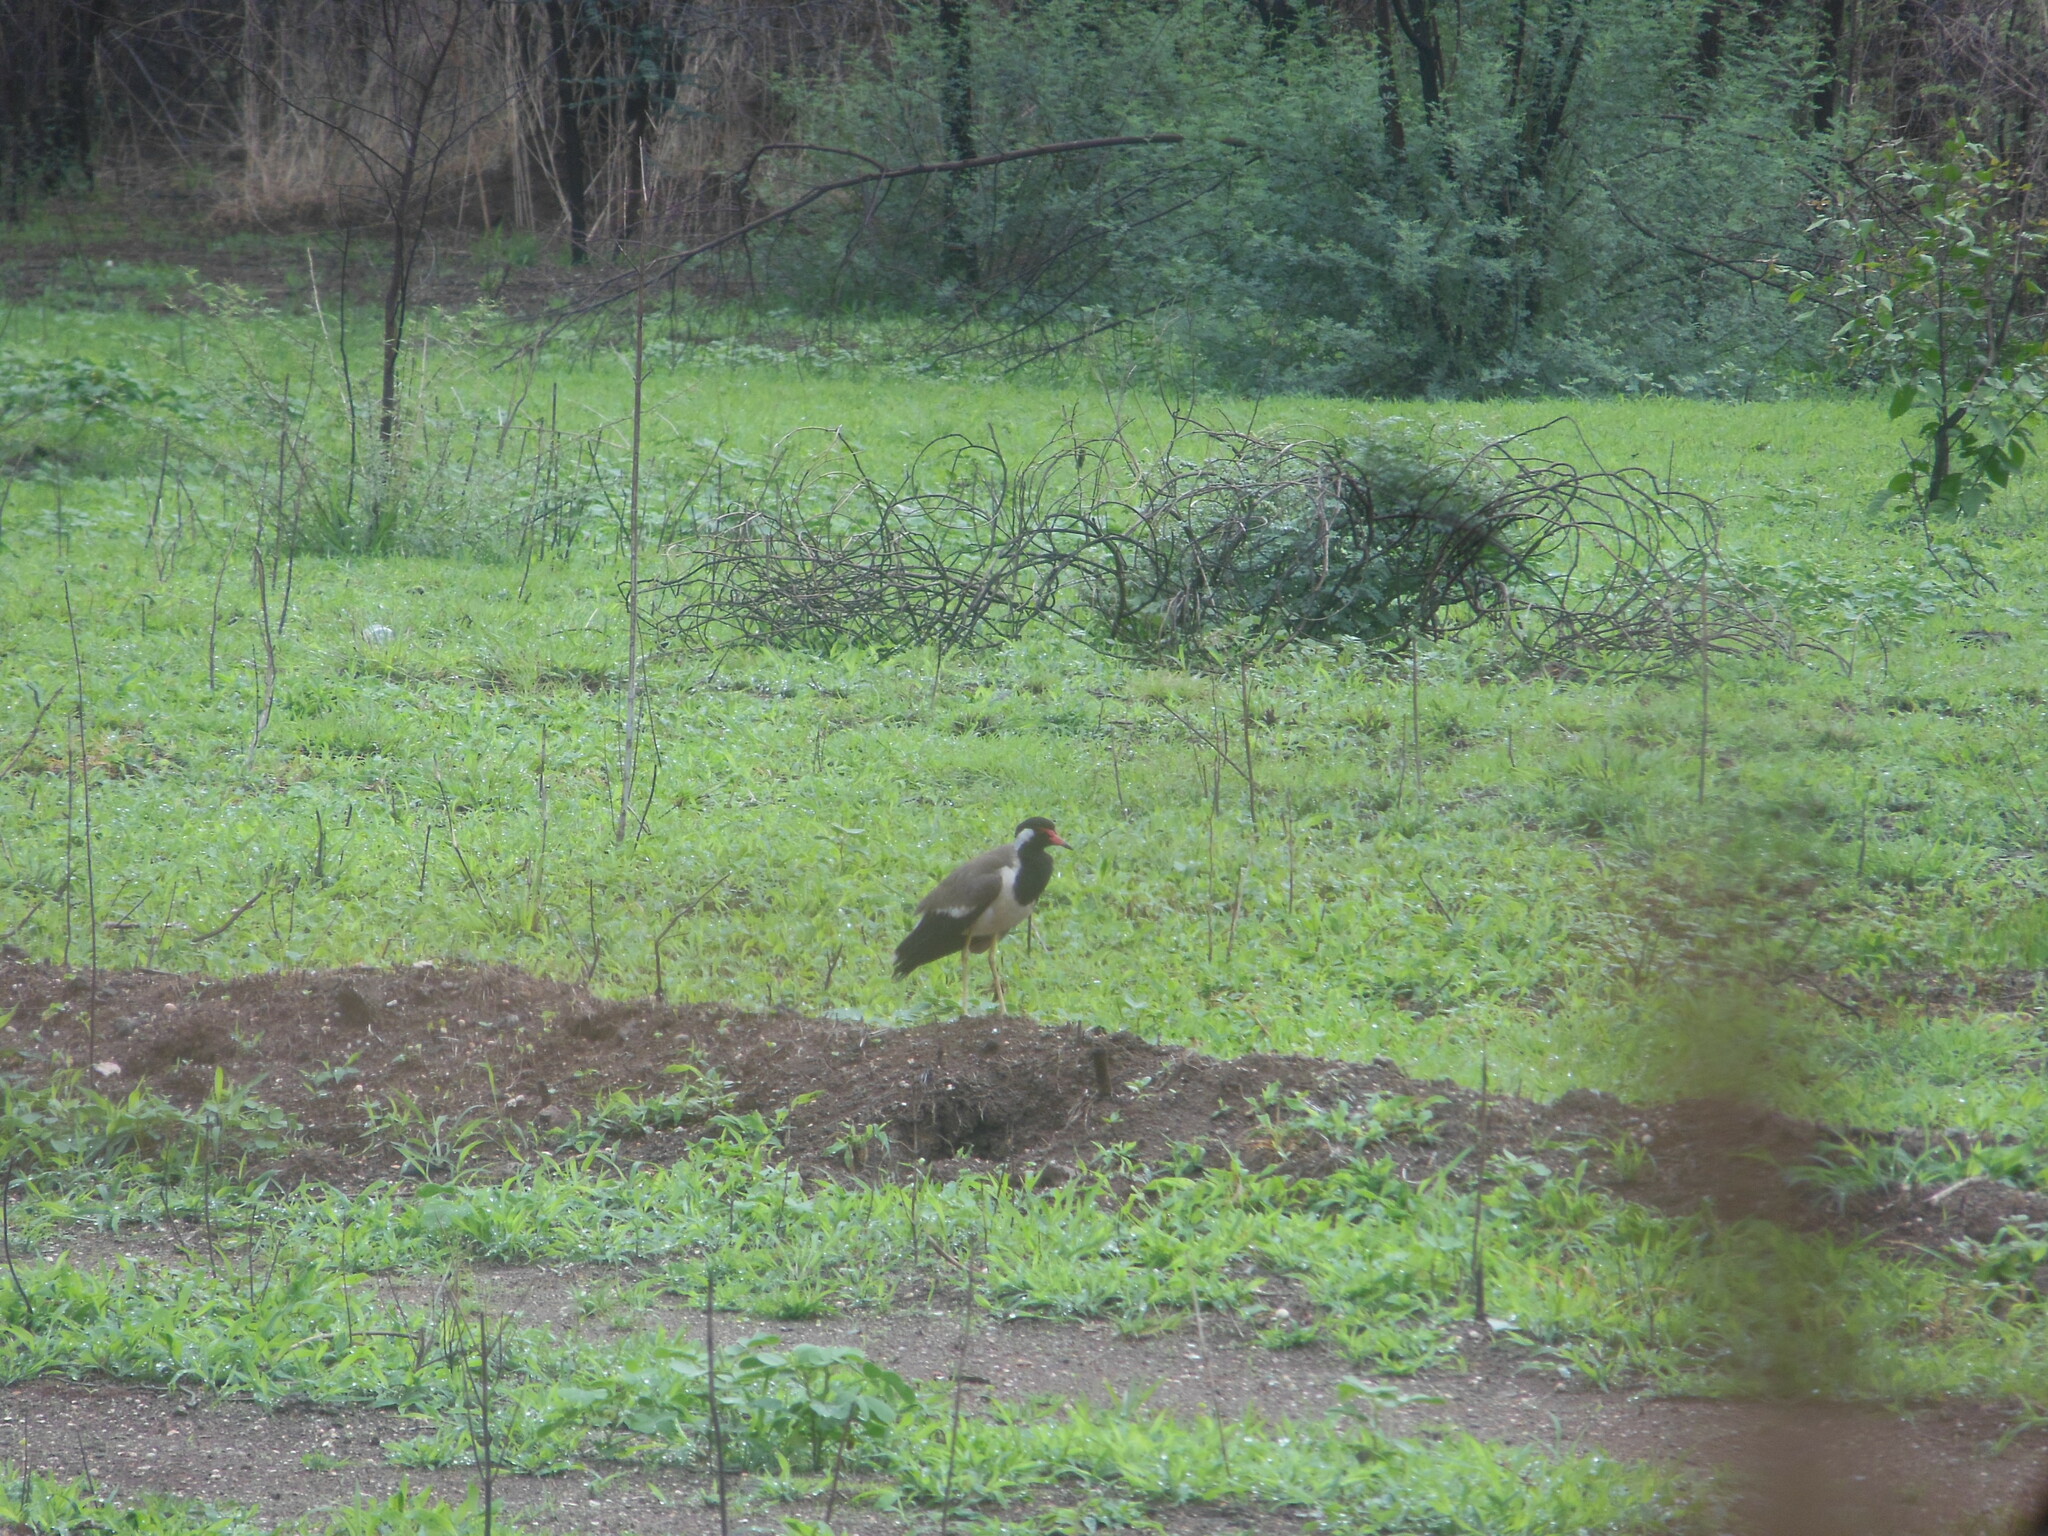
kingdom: Animalia
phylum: Chordata
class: Aves
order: Charadriiformes
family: Charadriidae
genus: Vanellus
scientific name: Vanellus indicus
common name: Red-wattled lapwing
